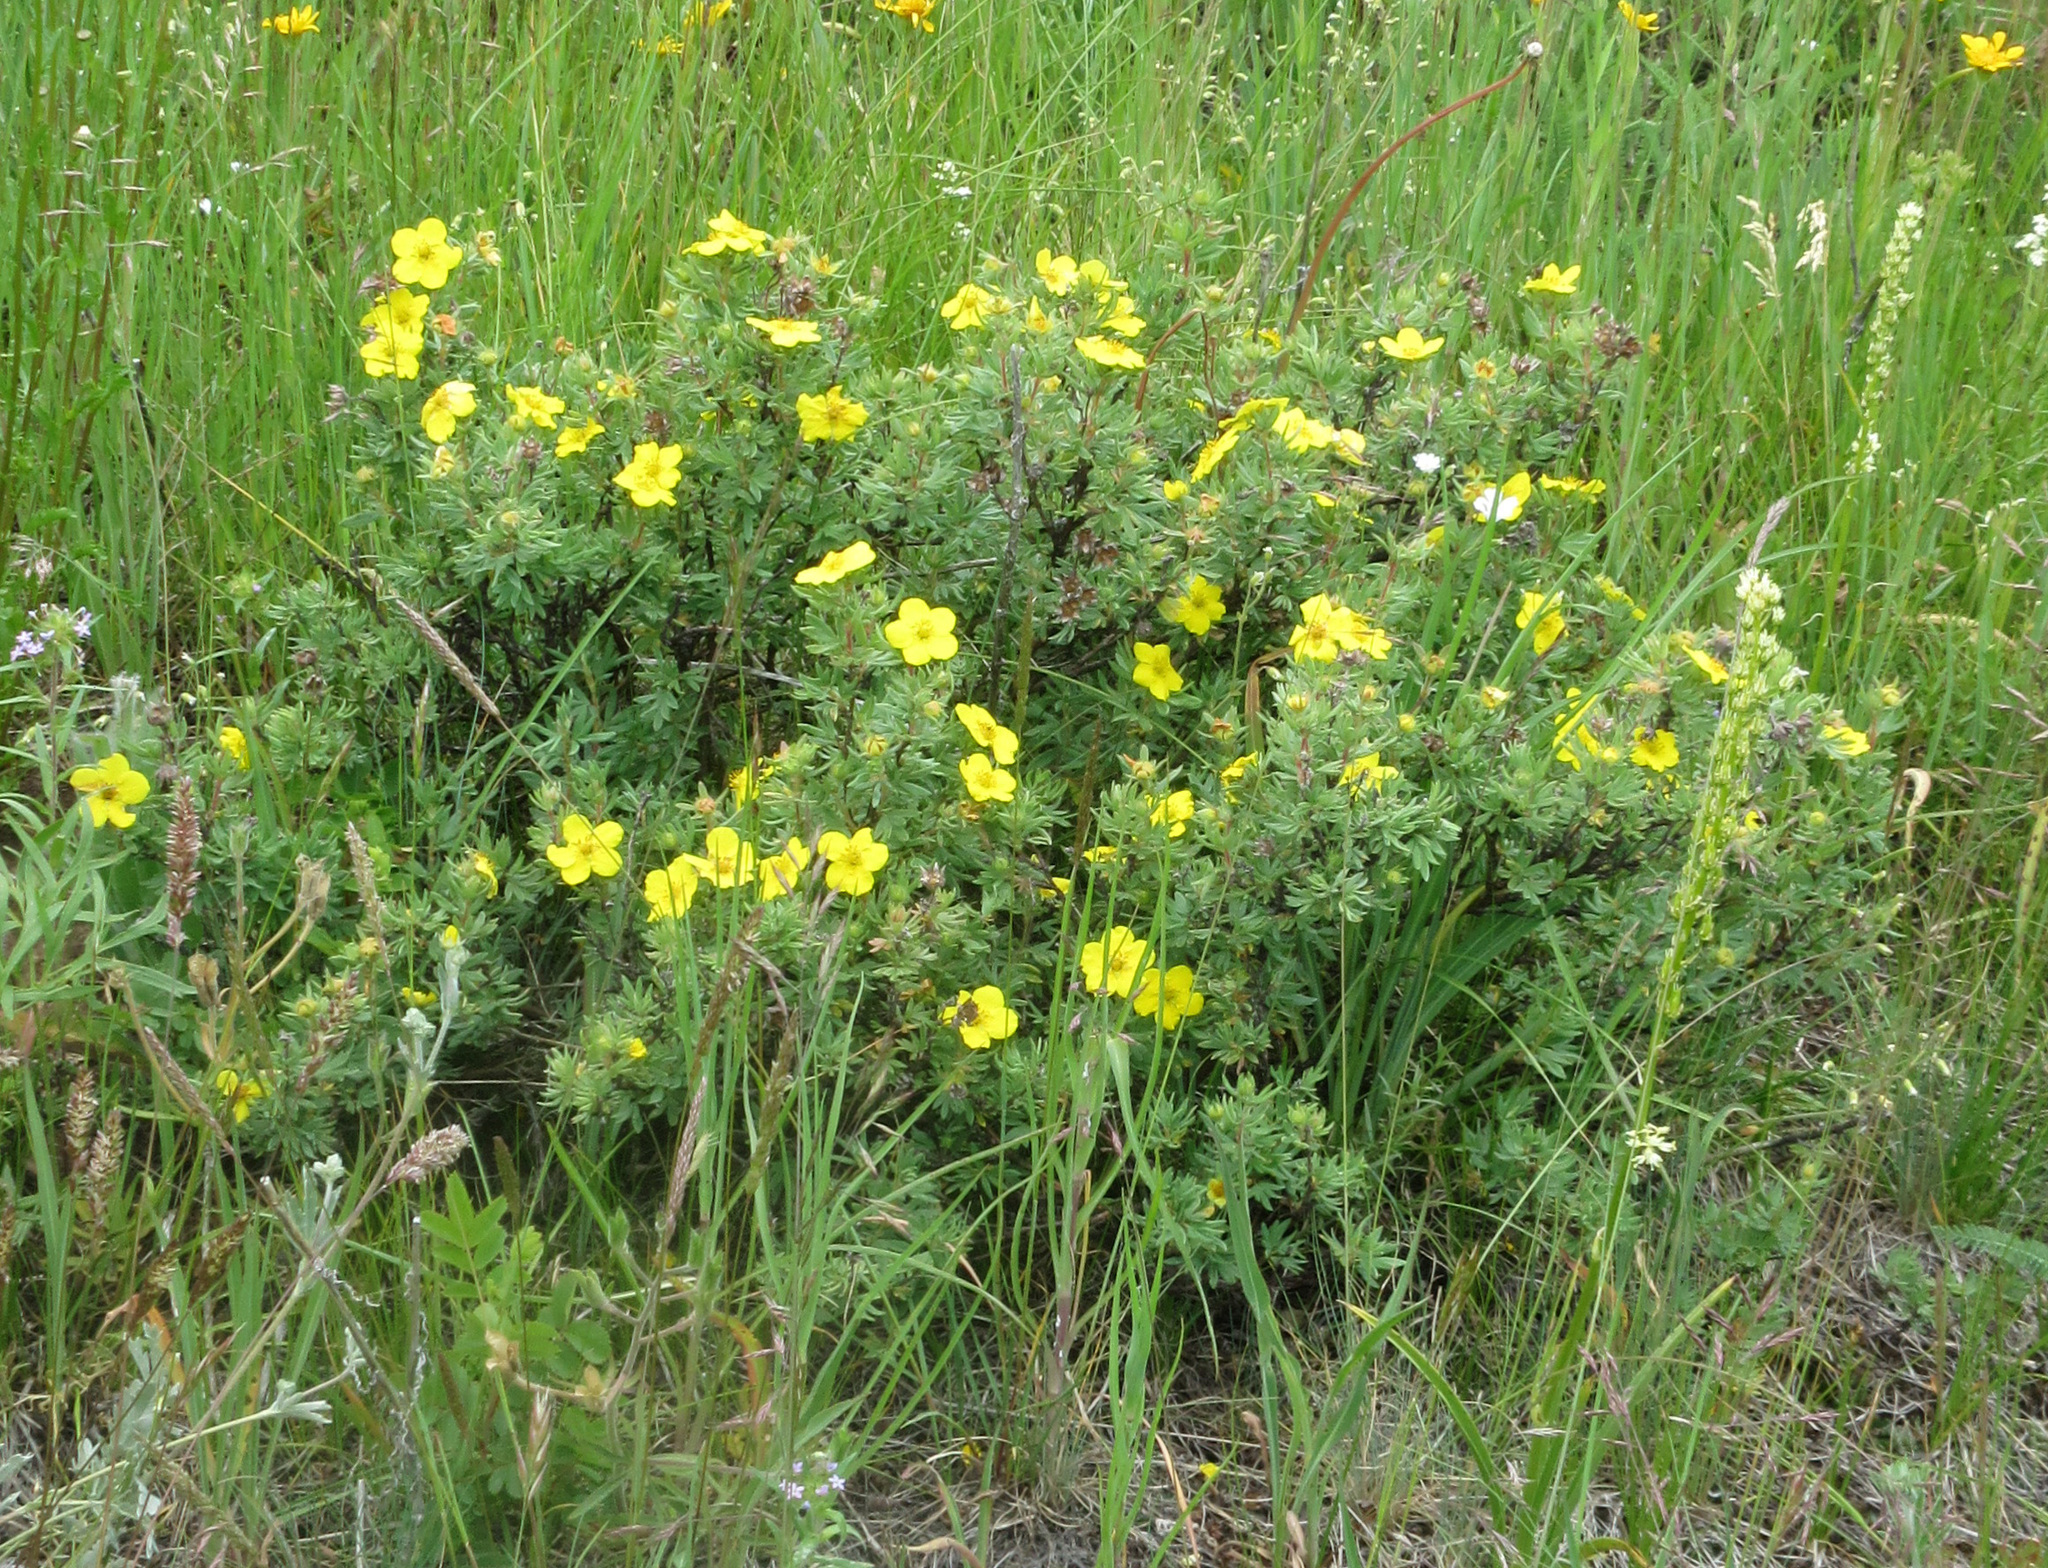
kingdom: Plantae
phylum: Tracheophyta
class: Magnoliopsida
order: Rosales
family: Rosaceae
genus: Dasiphora
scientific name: Dasiphora fruticosa
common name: Shrubby cinquefoil
